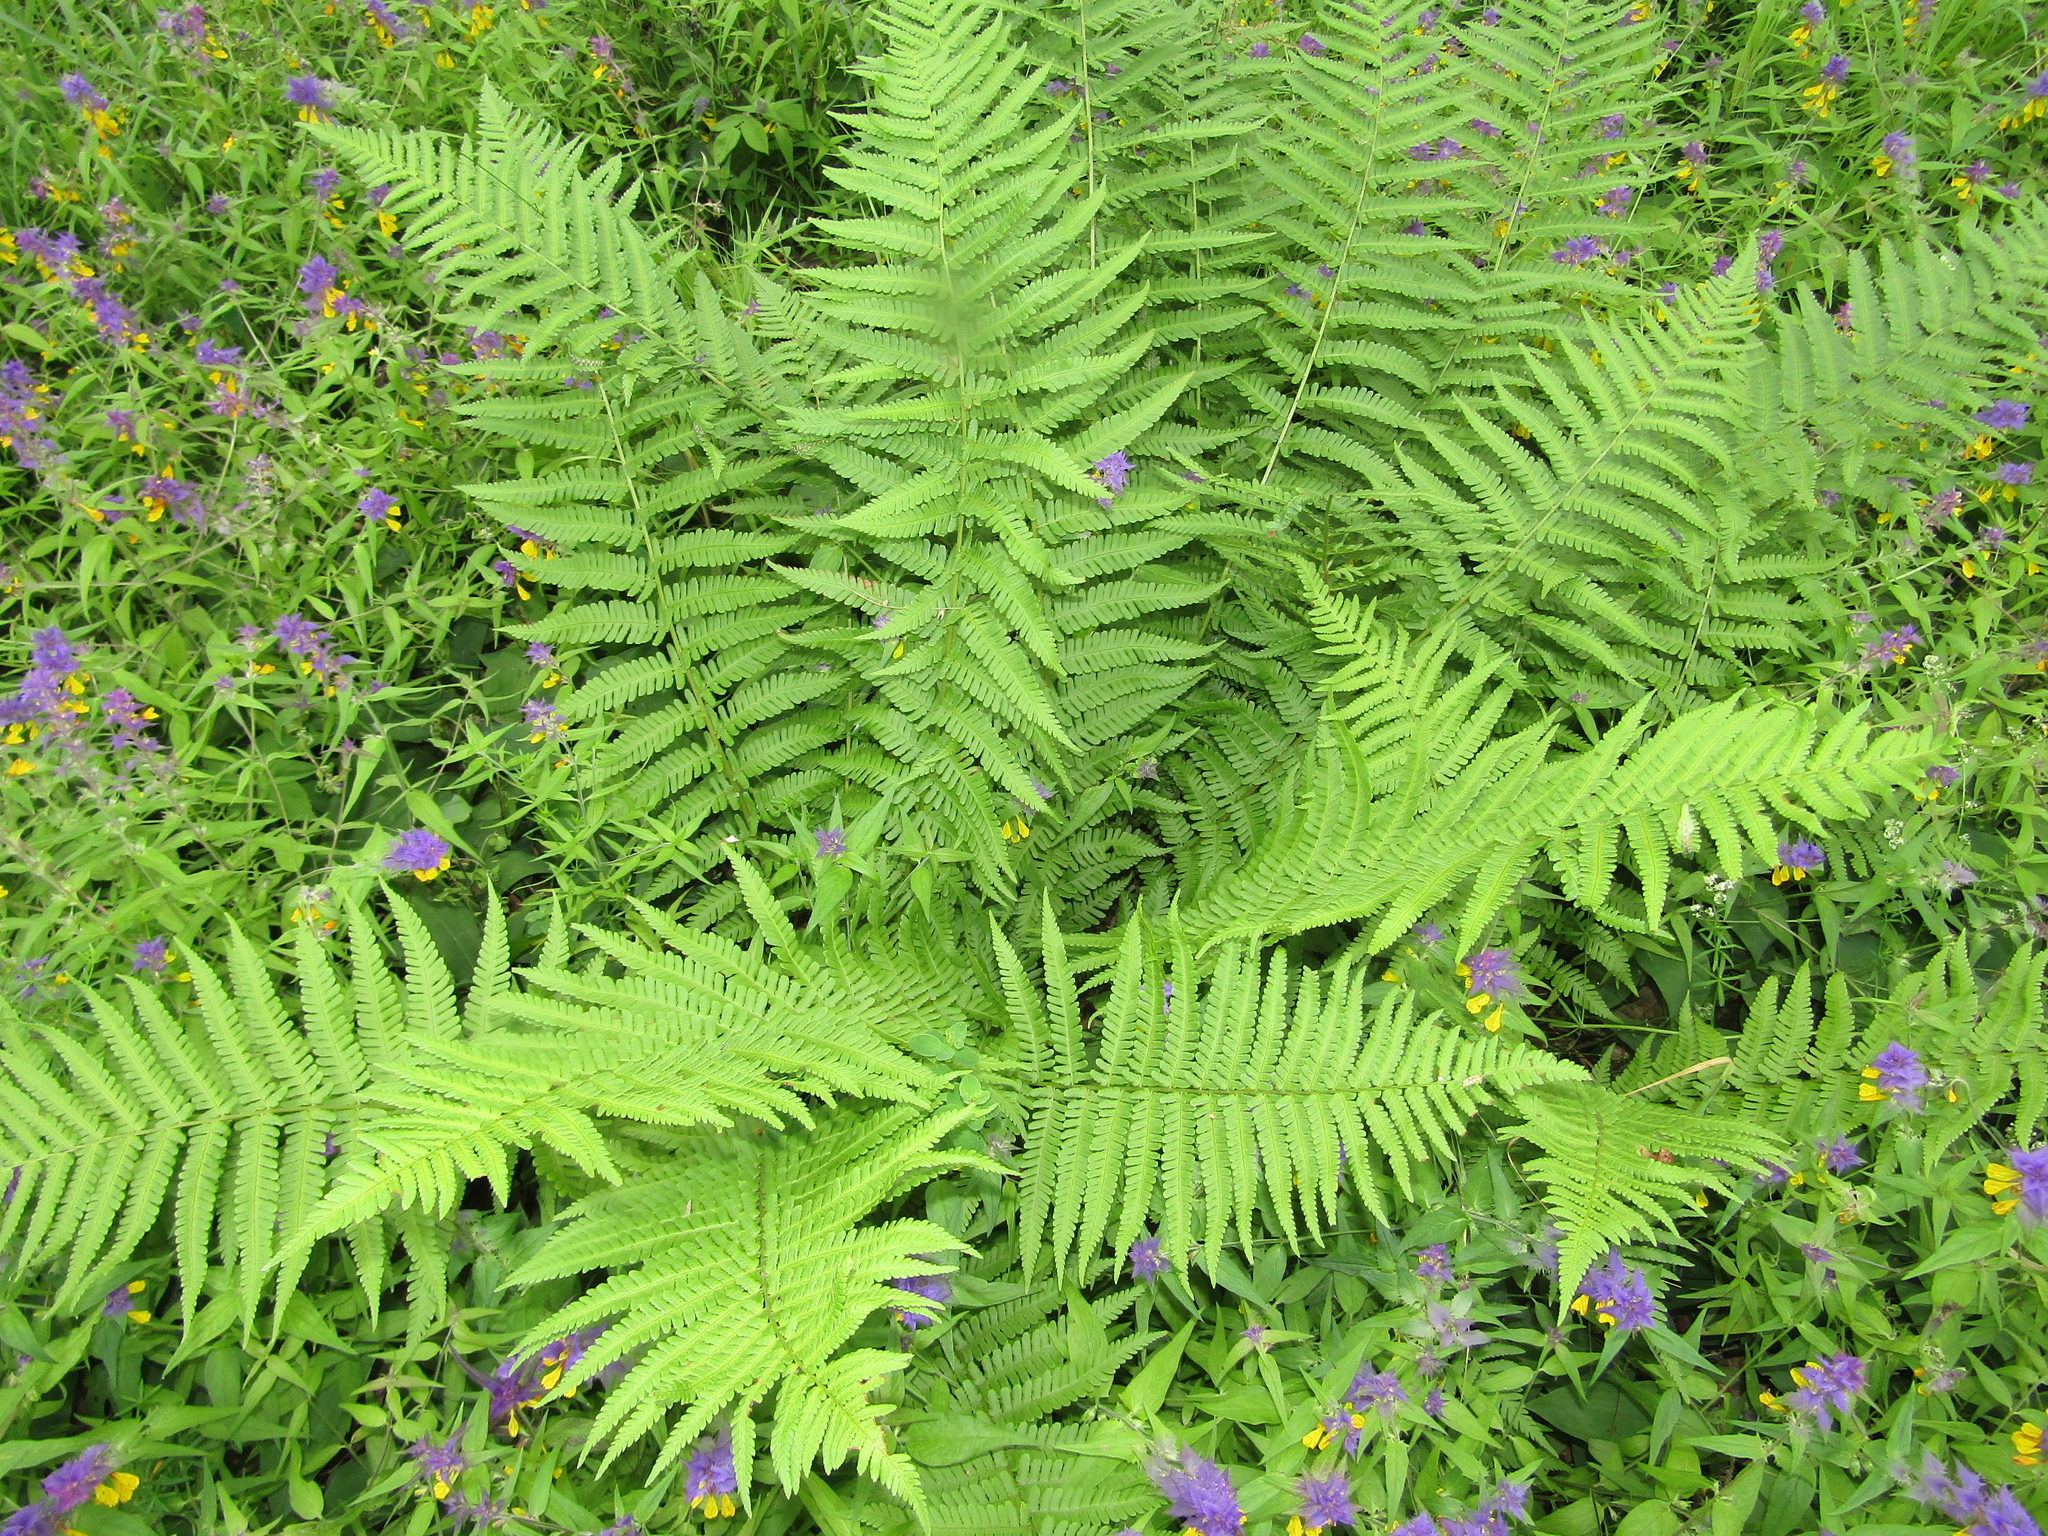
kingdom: Plantae
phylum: Tracheophyta
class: Polypodiopsida
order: Polypodiales
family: Dryopteridaceae
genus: Dryopteris
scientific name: Dryopteris filix-mas
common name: Male fern
